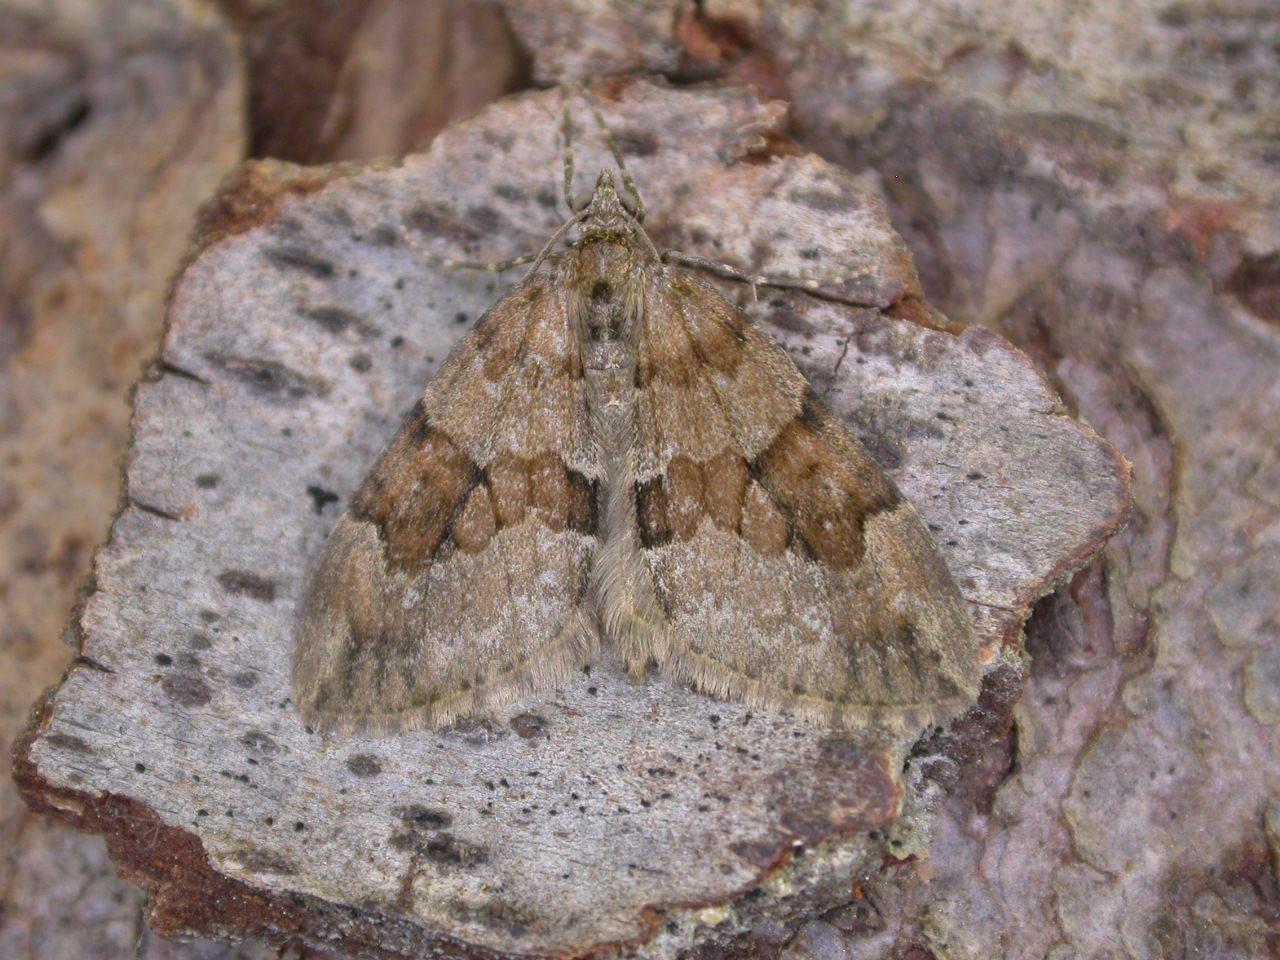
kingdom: Animalia
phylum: Arthropoda
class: Insecta
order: Lepidoptera
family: Geometridae
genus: Thera
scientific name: Thera obeliscata
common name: Grey pine carpet
